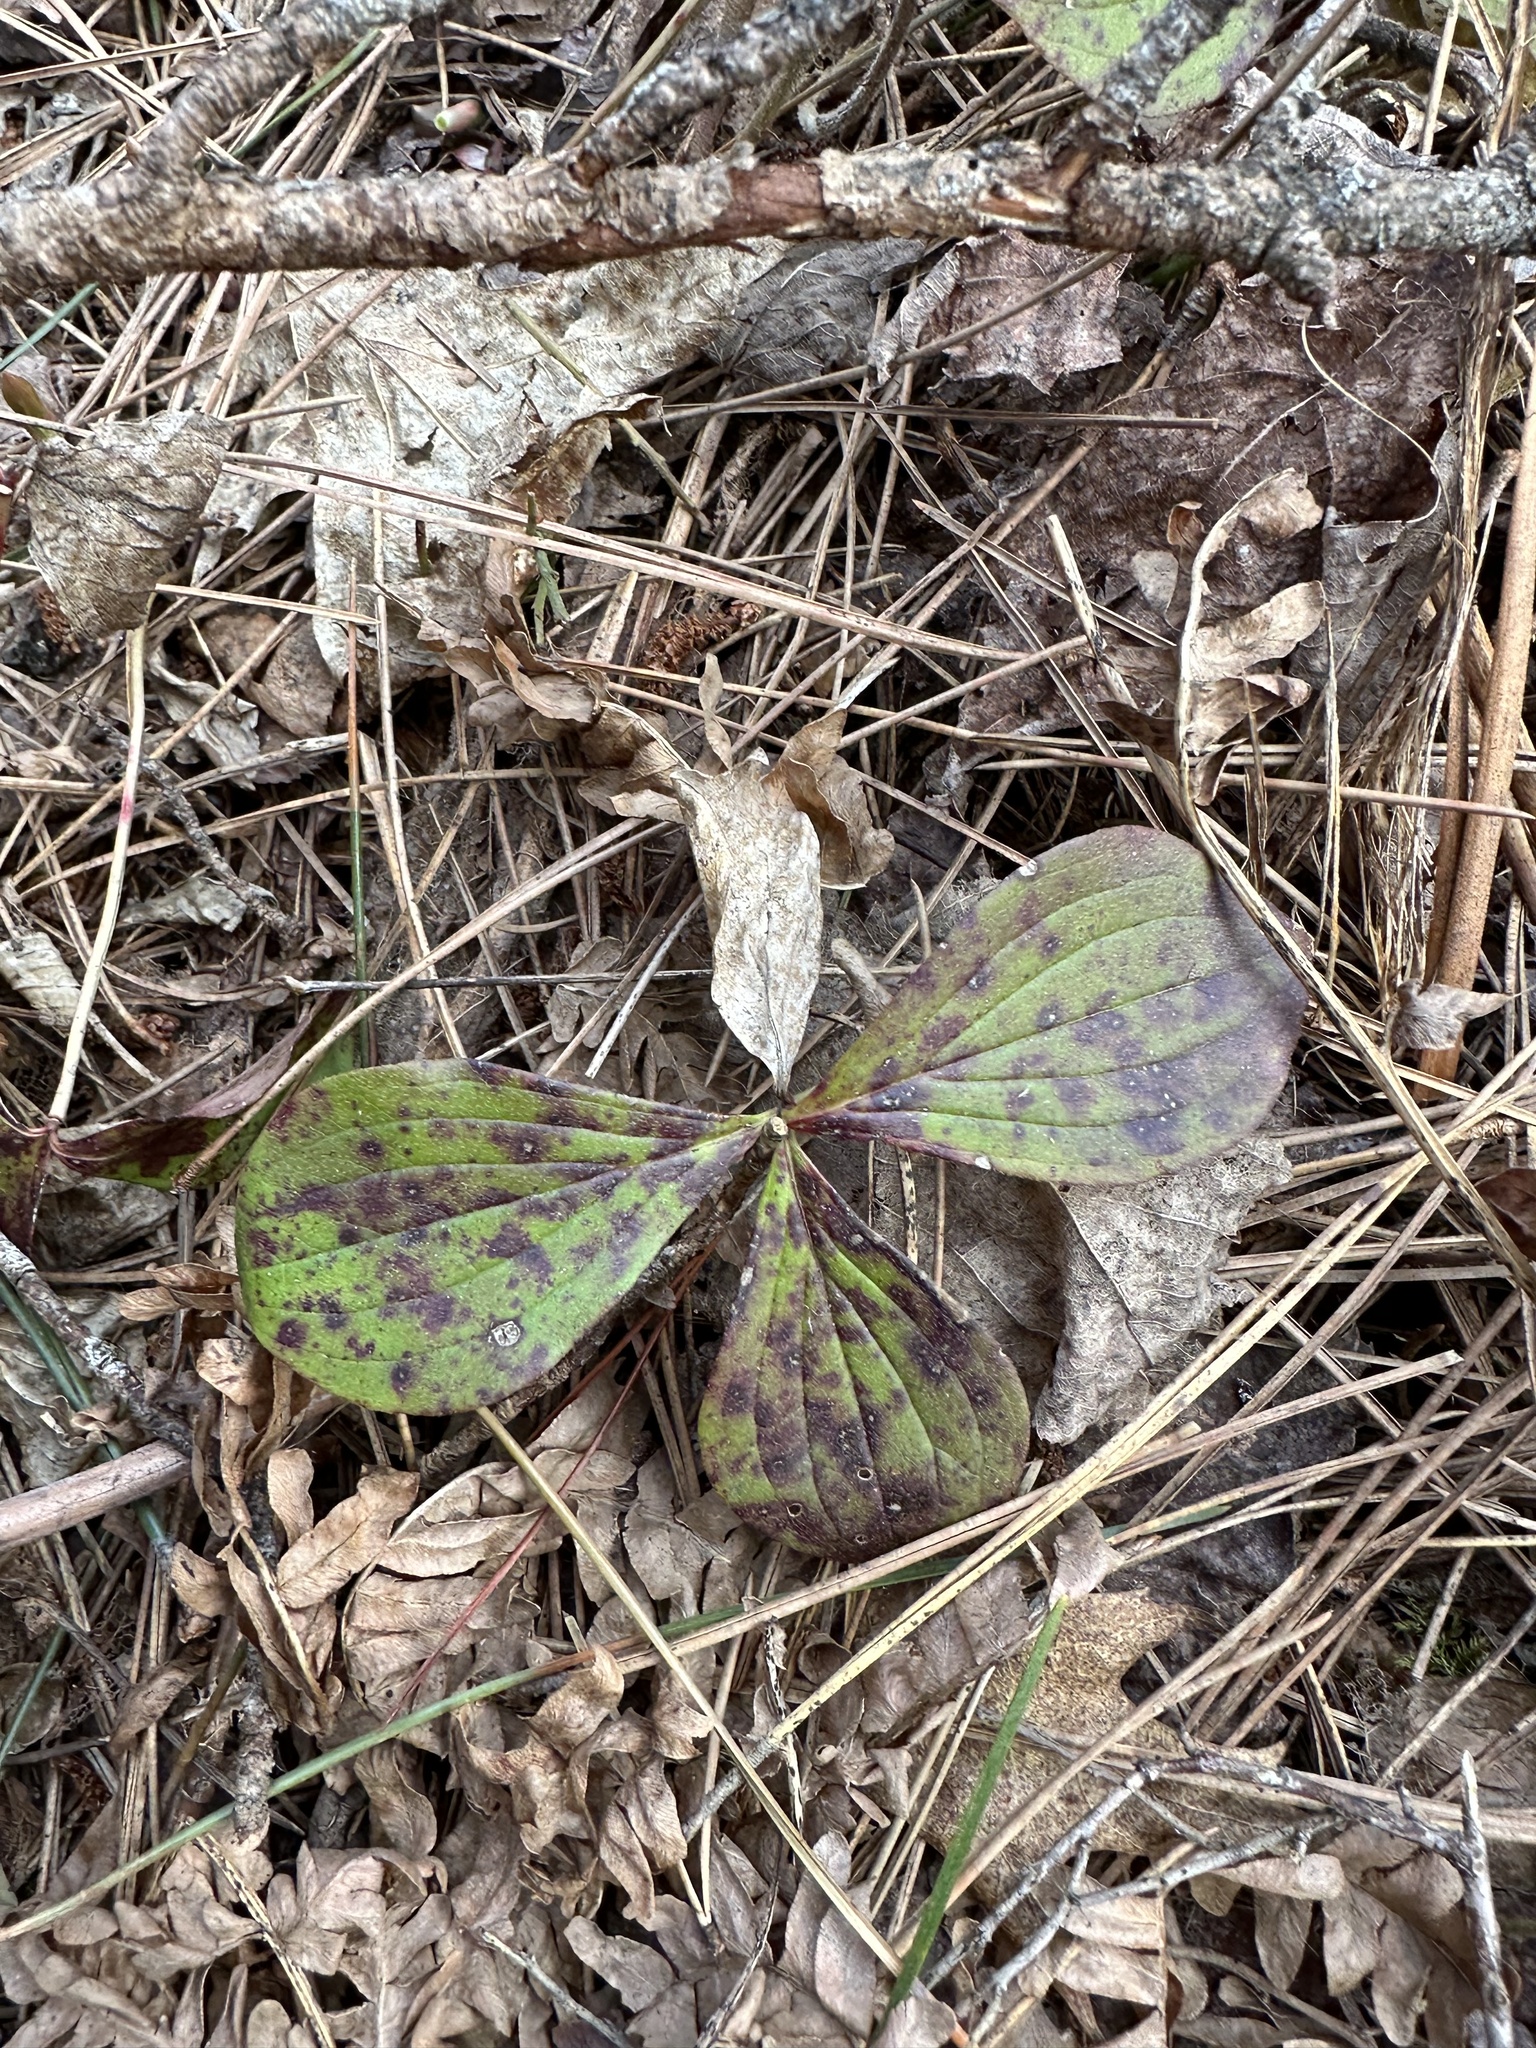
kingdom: Plantae
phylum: Tracheophyta
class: Magnoliopsida
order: Cornales
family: Cornaceae
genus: Cornus
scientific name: Cornus canadensis
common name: Creeping dogwood
